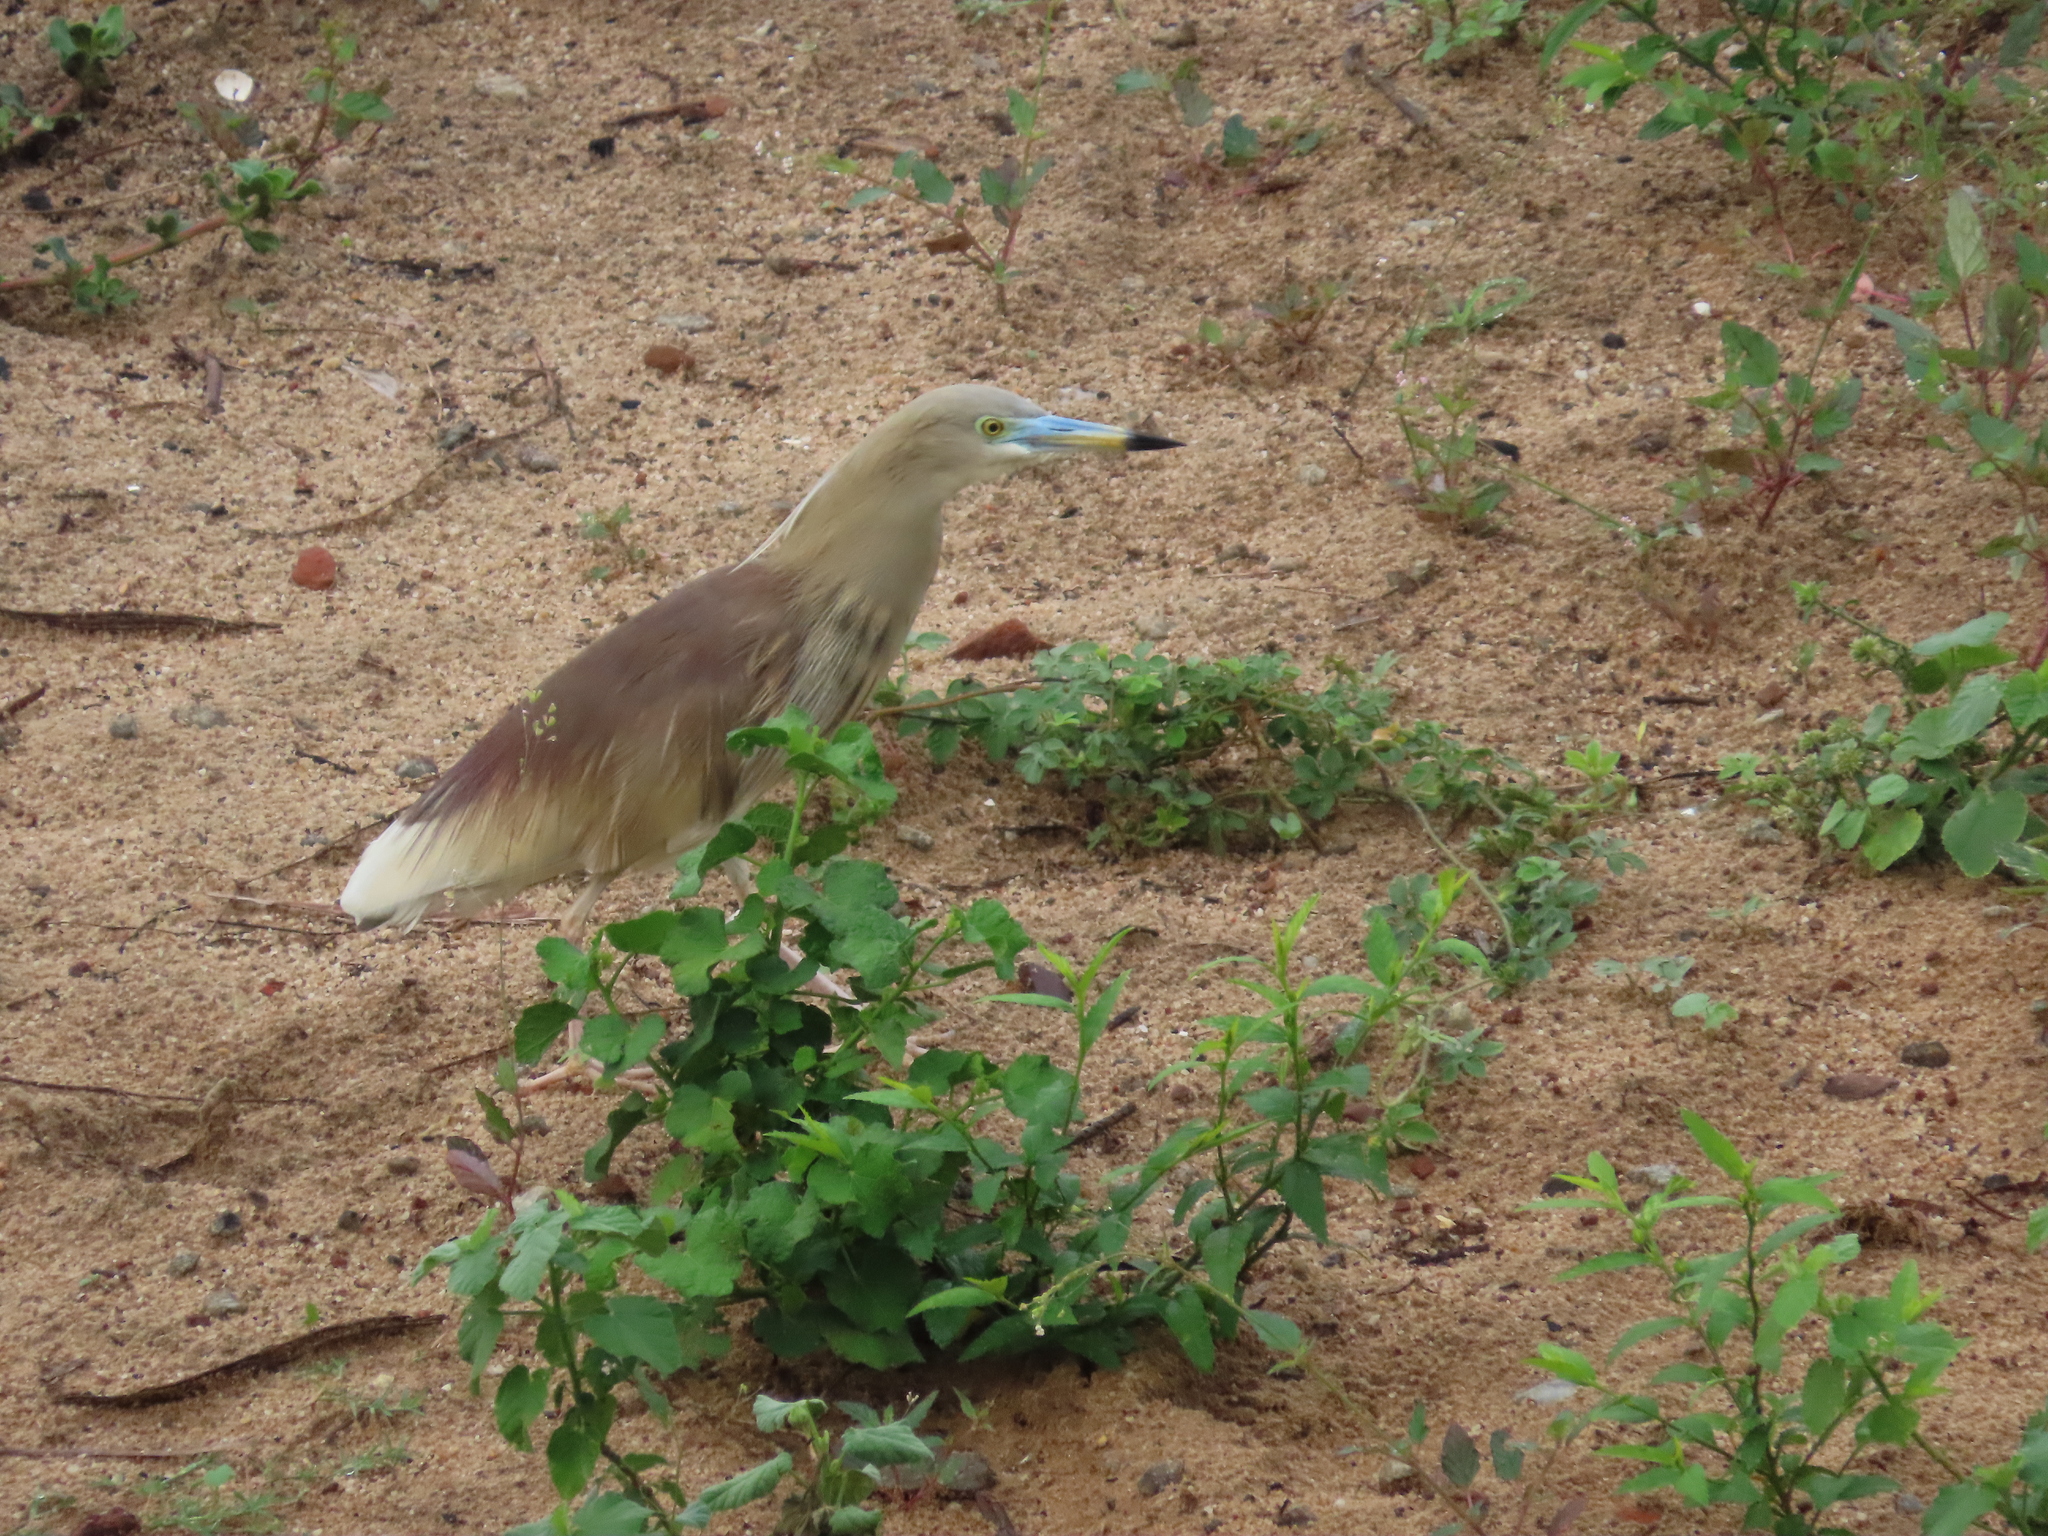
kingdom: Animalia
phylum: Chordata
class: Aves
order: Pelecaniformes
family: Ardeidae
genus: Ardeola
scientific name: Ardeola grayii
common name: Indian pond heron
